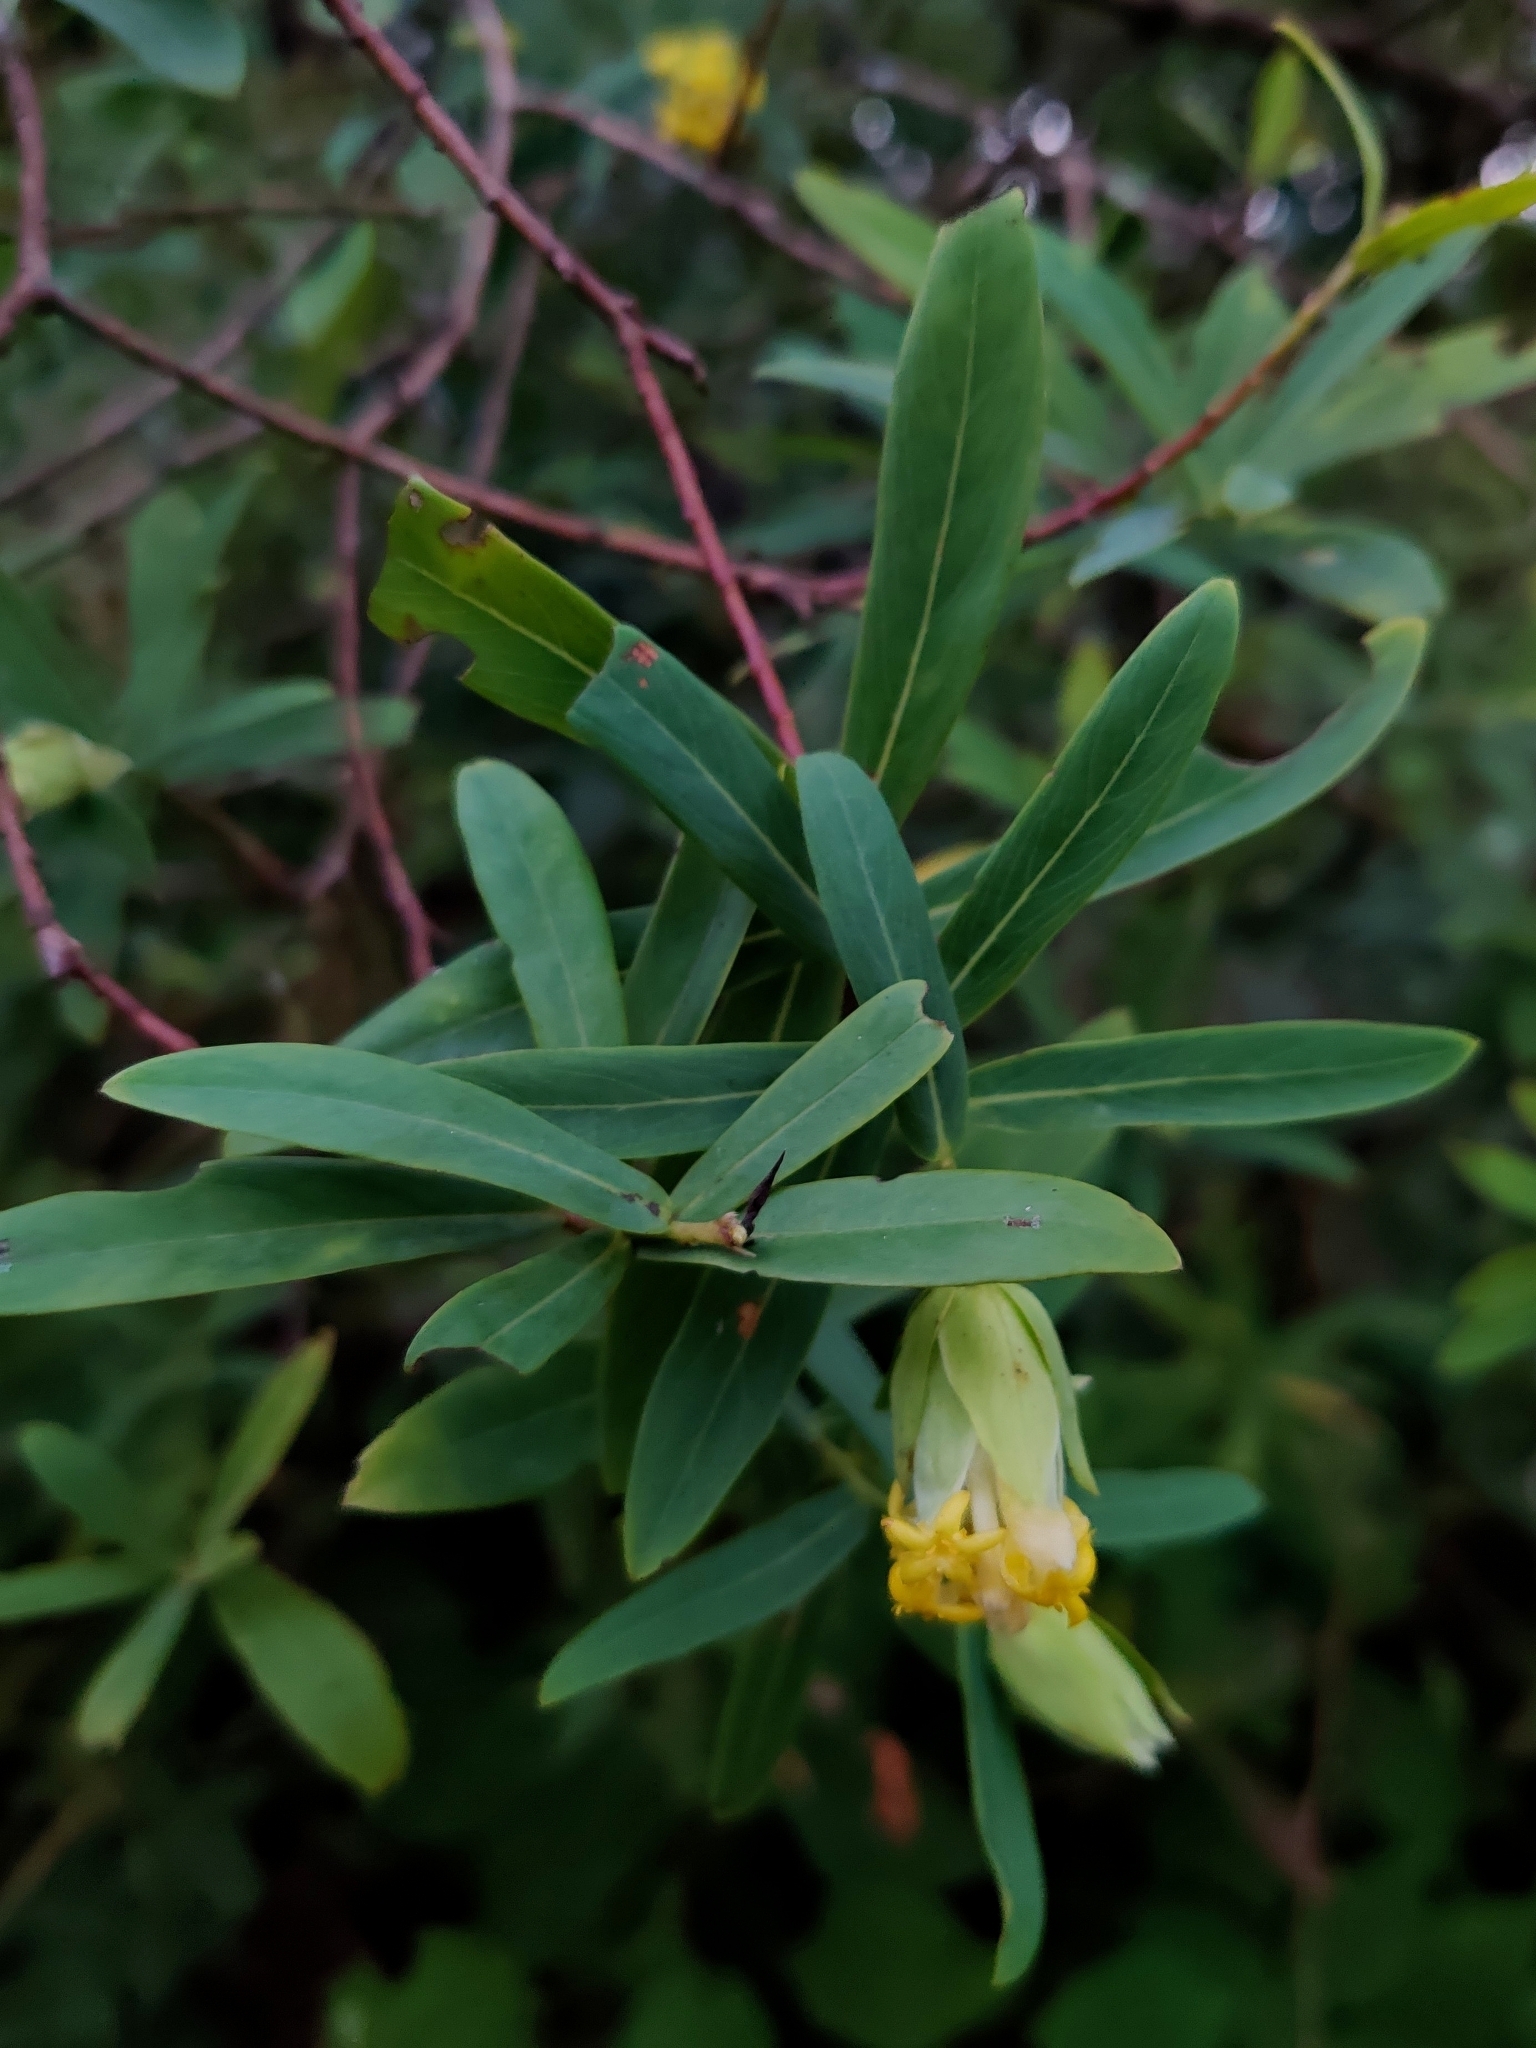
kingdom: Plantae
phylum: Tracheophyta
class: Magnoliopsida
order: Malvales
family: Thymelaeaceae
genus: Gnidia
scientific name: Gnidia glauca
